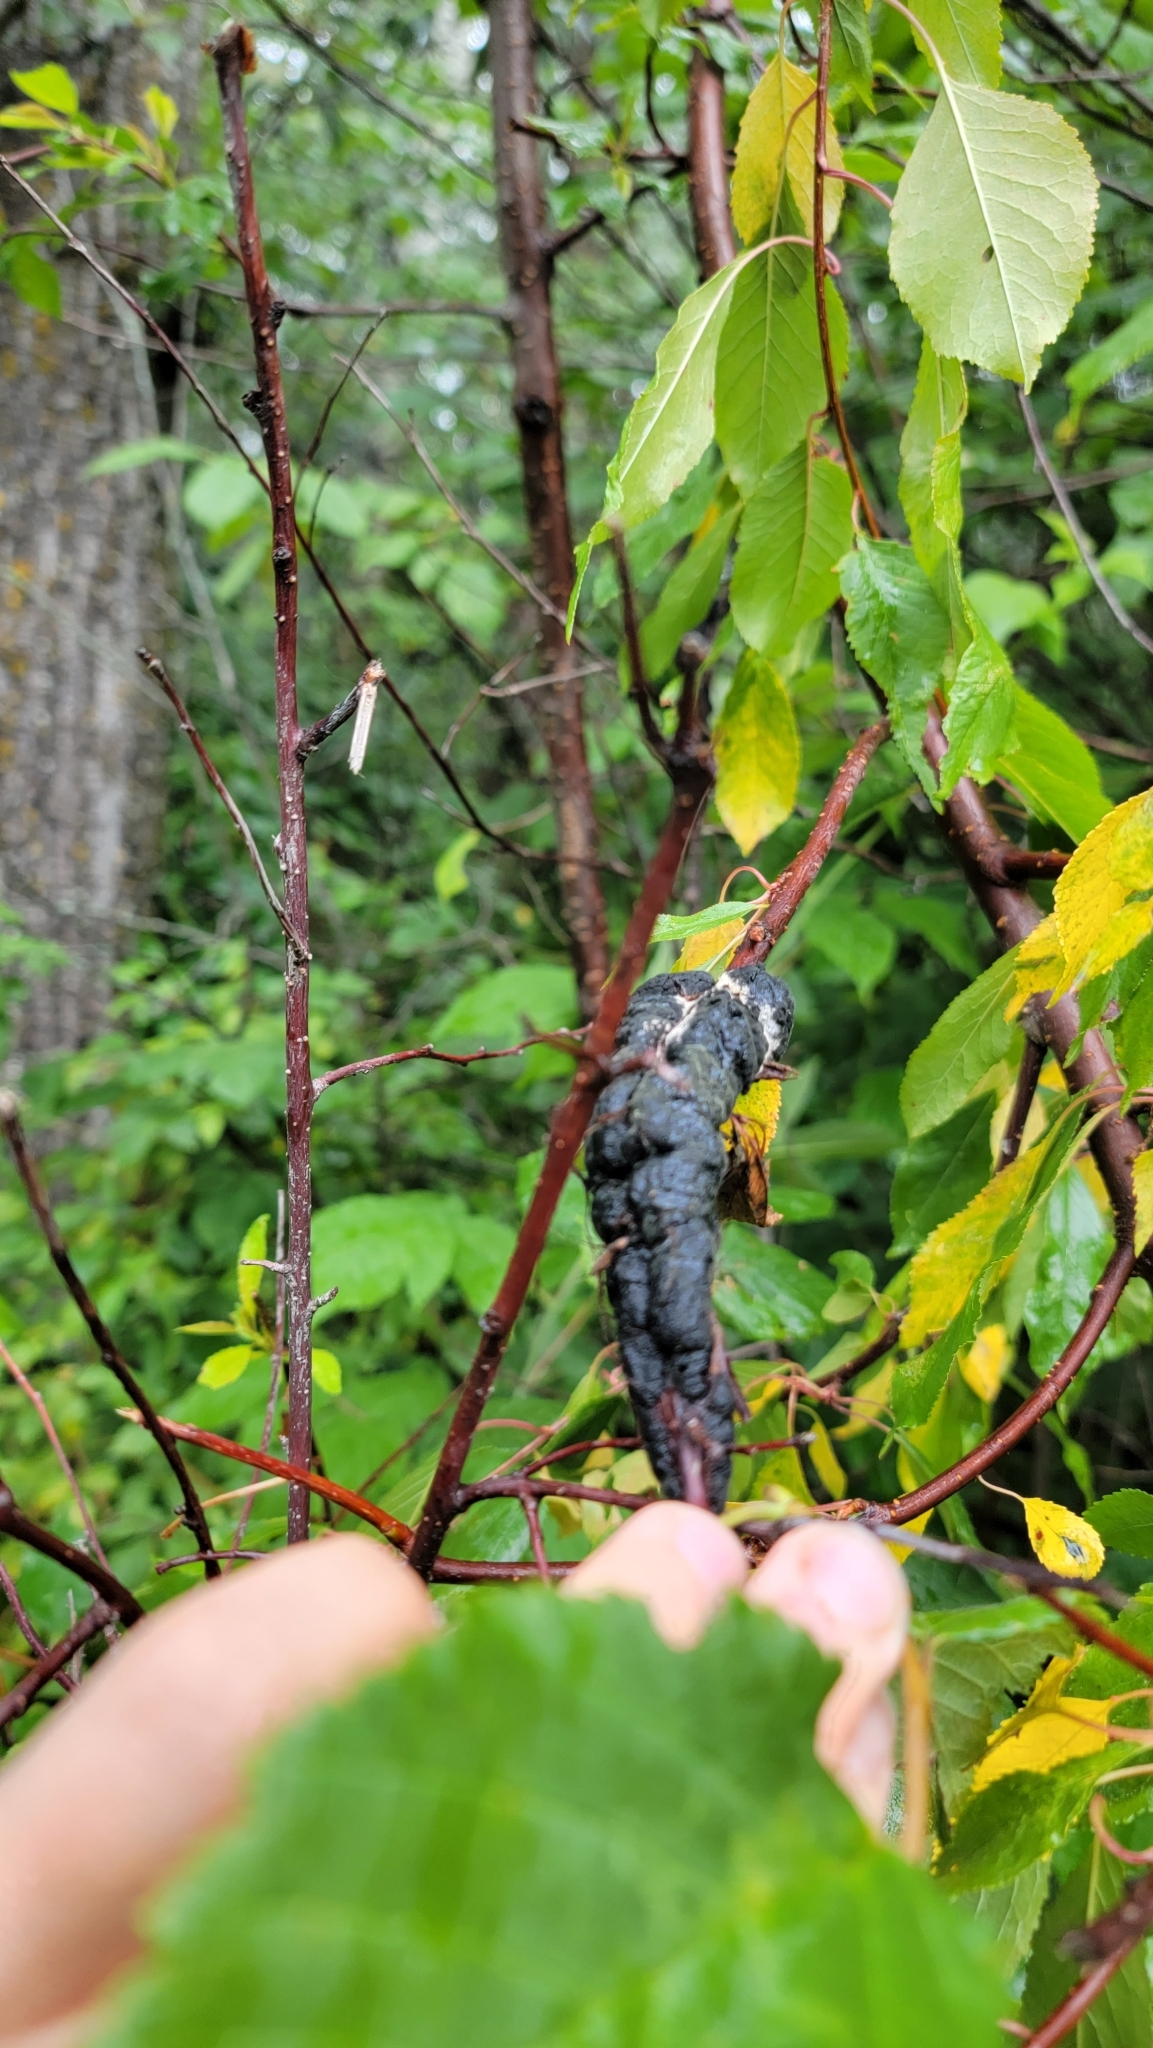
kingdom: Fungi
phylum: Ascomycota
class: Dothideomycetes
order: Venturiales
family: Venturiaceae
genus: Apiosporina
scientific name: Apiosporina morbosa
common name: Black knot
